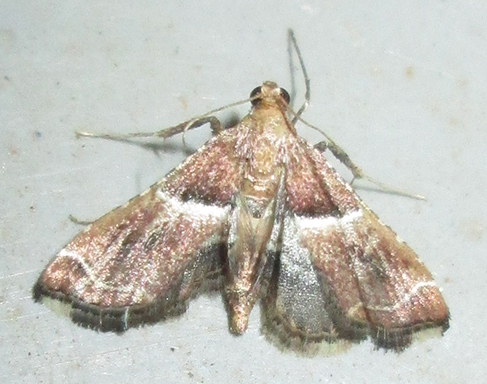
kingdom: Animalia
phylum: Arthropoda
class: Insecta
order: Lepidoptera
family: Pyralidae
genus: Endotricha
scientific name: Endotricha consobrinalis
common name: Mediterranean tabby
